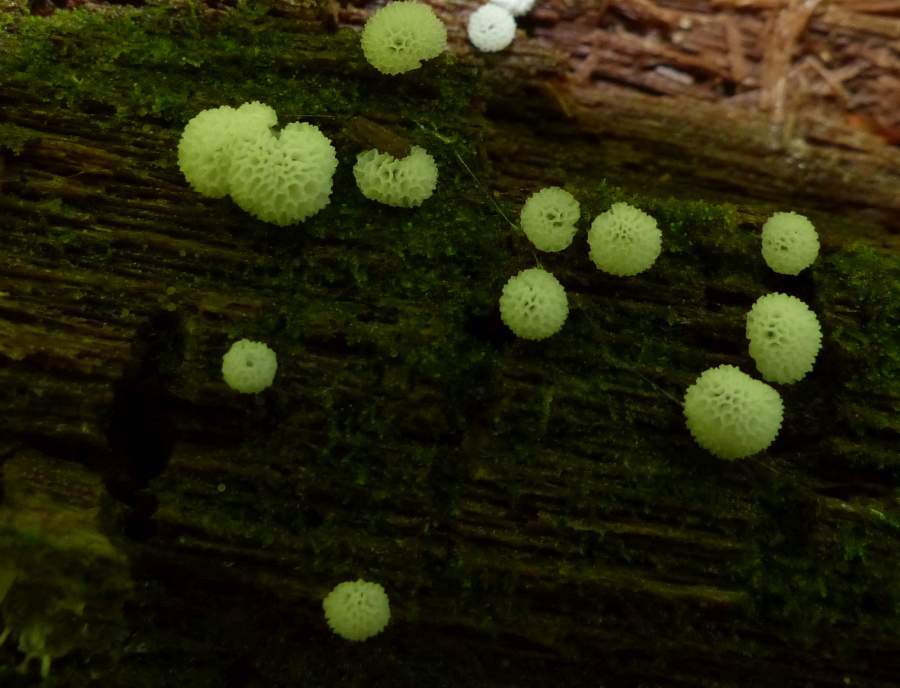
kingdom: Protozoa
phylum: Mycetozoa
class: Protosteliomycetes
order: Ceratiomyxales
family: Ceratiomyxaceae
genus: Ceratiomyxa
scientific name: Ceratiomyxa fruticulosa
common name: Honeycomb coral slime mold
